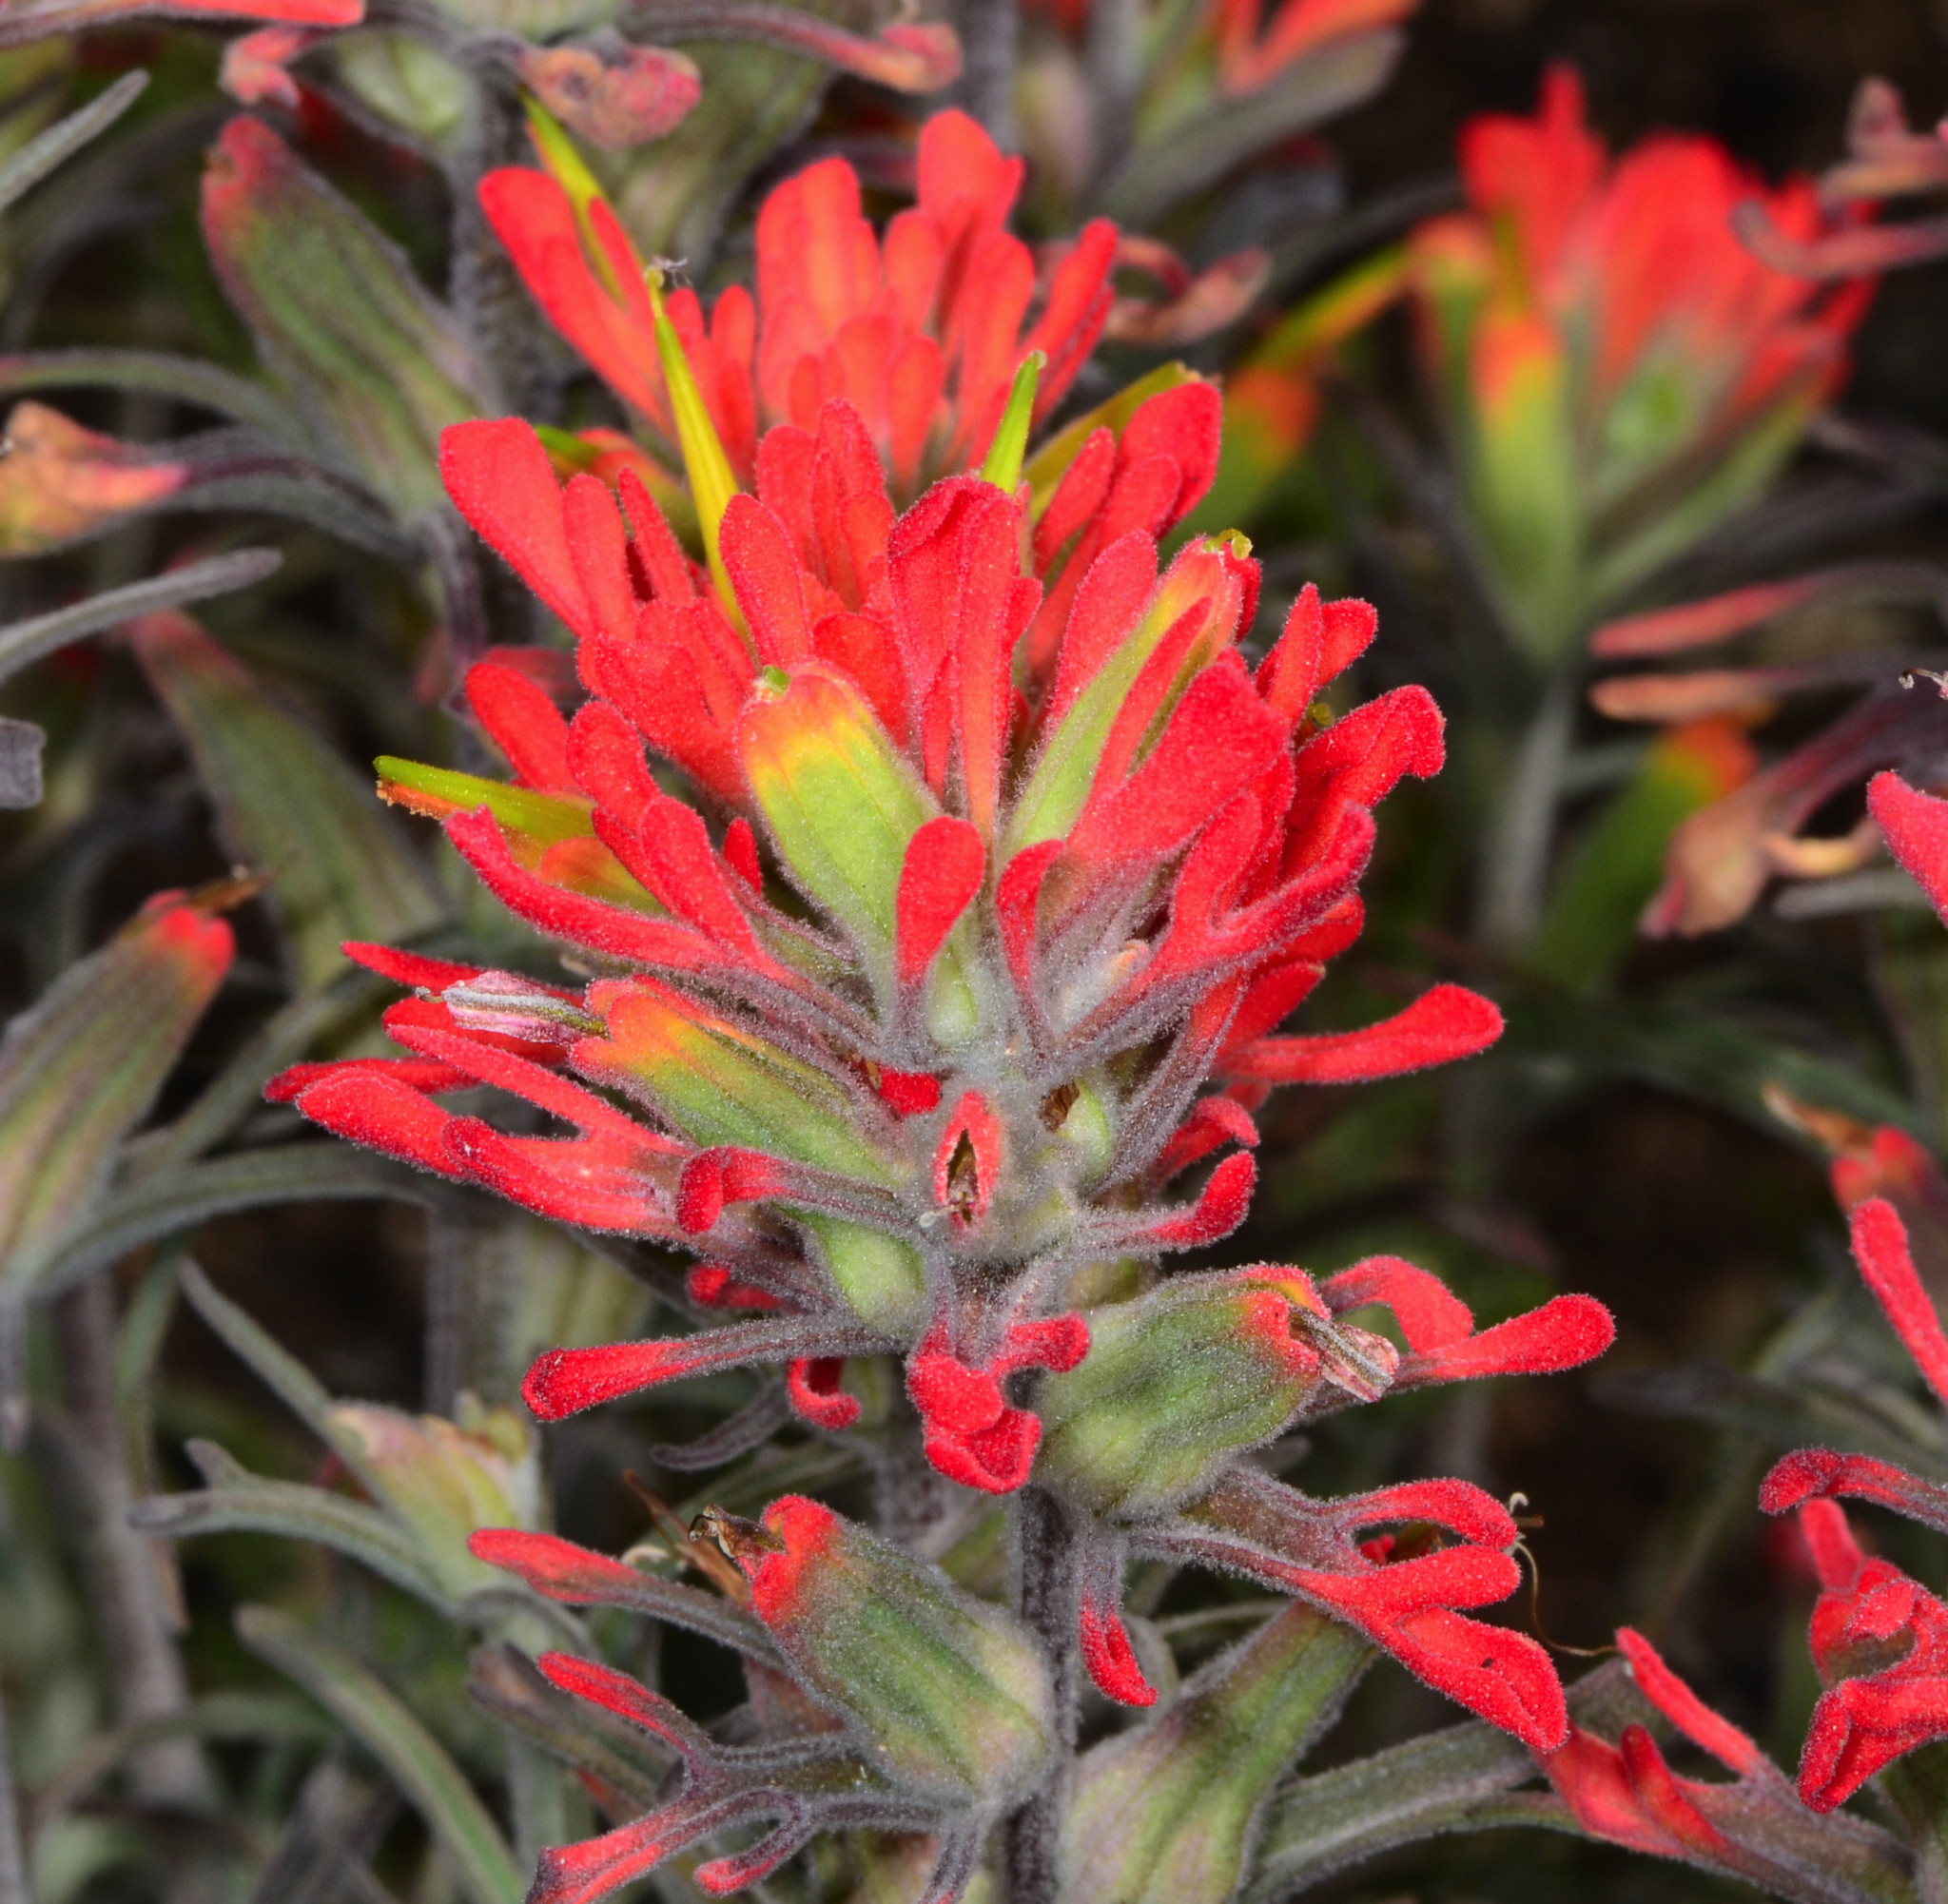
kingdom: Plantae
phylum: Tracheophyta
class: Magnoliopsida
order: Lamiales
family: Orobanchaceae
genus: Castilleja
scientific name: Castilleja foliolosa
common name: Woolly indian paintbrush
